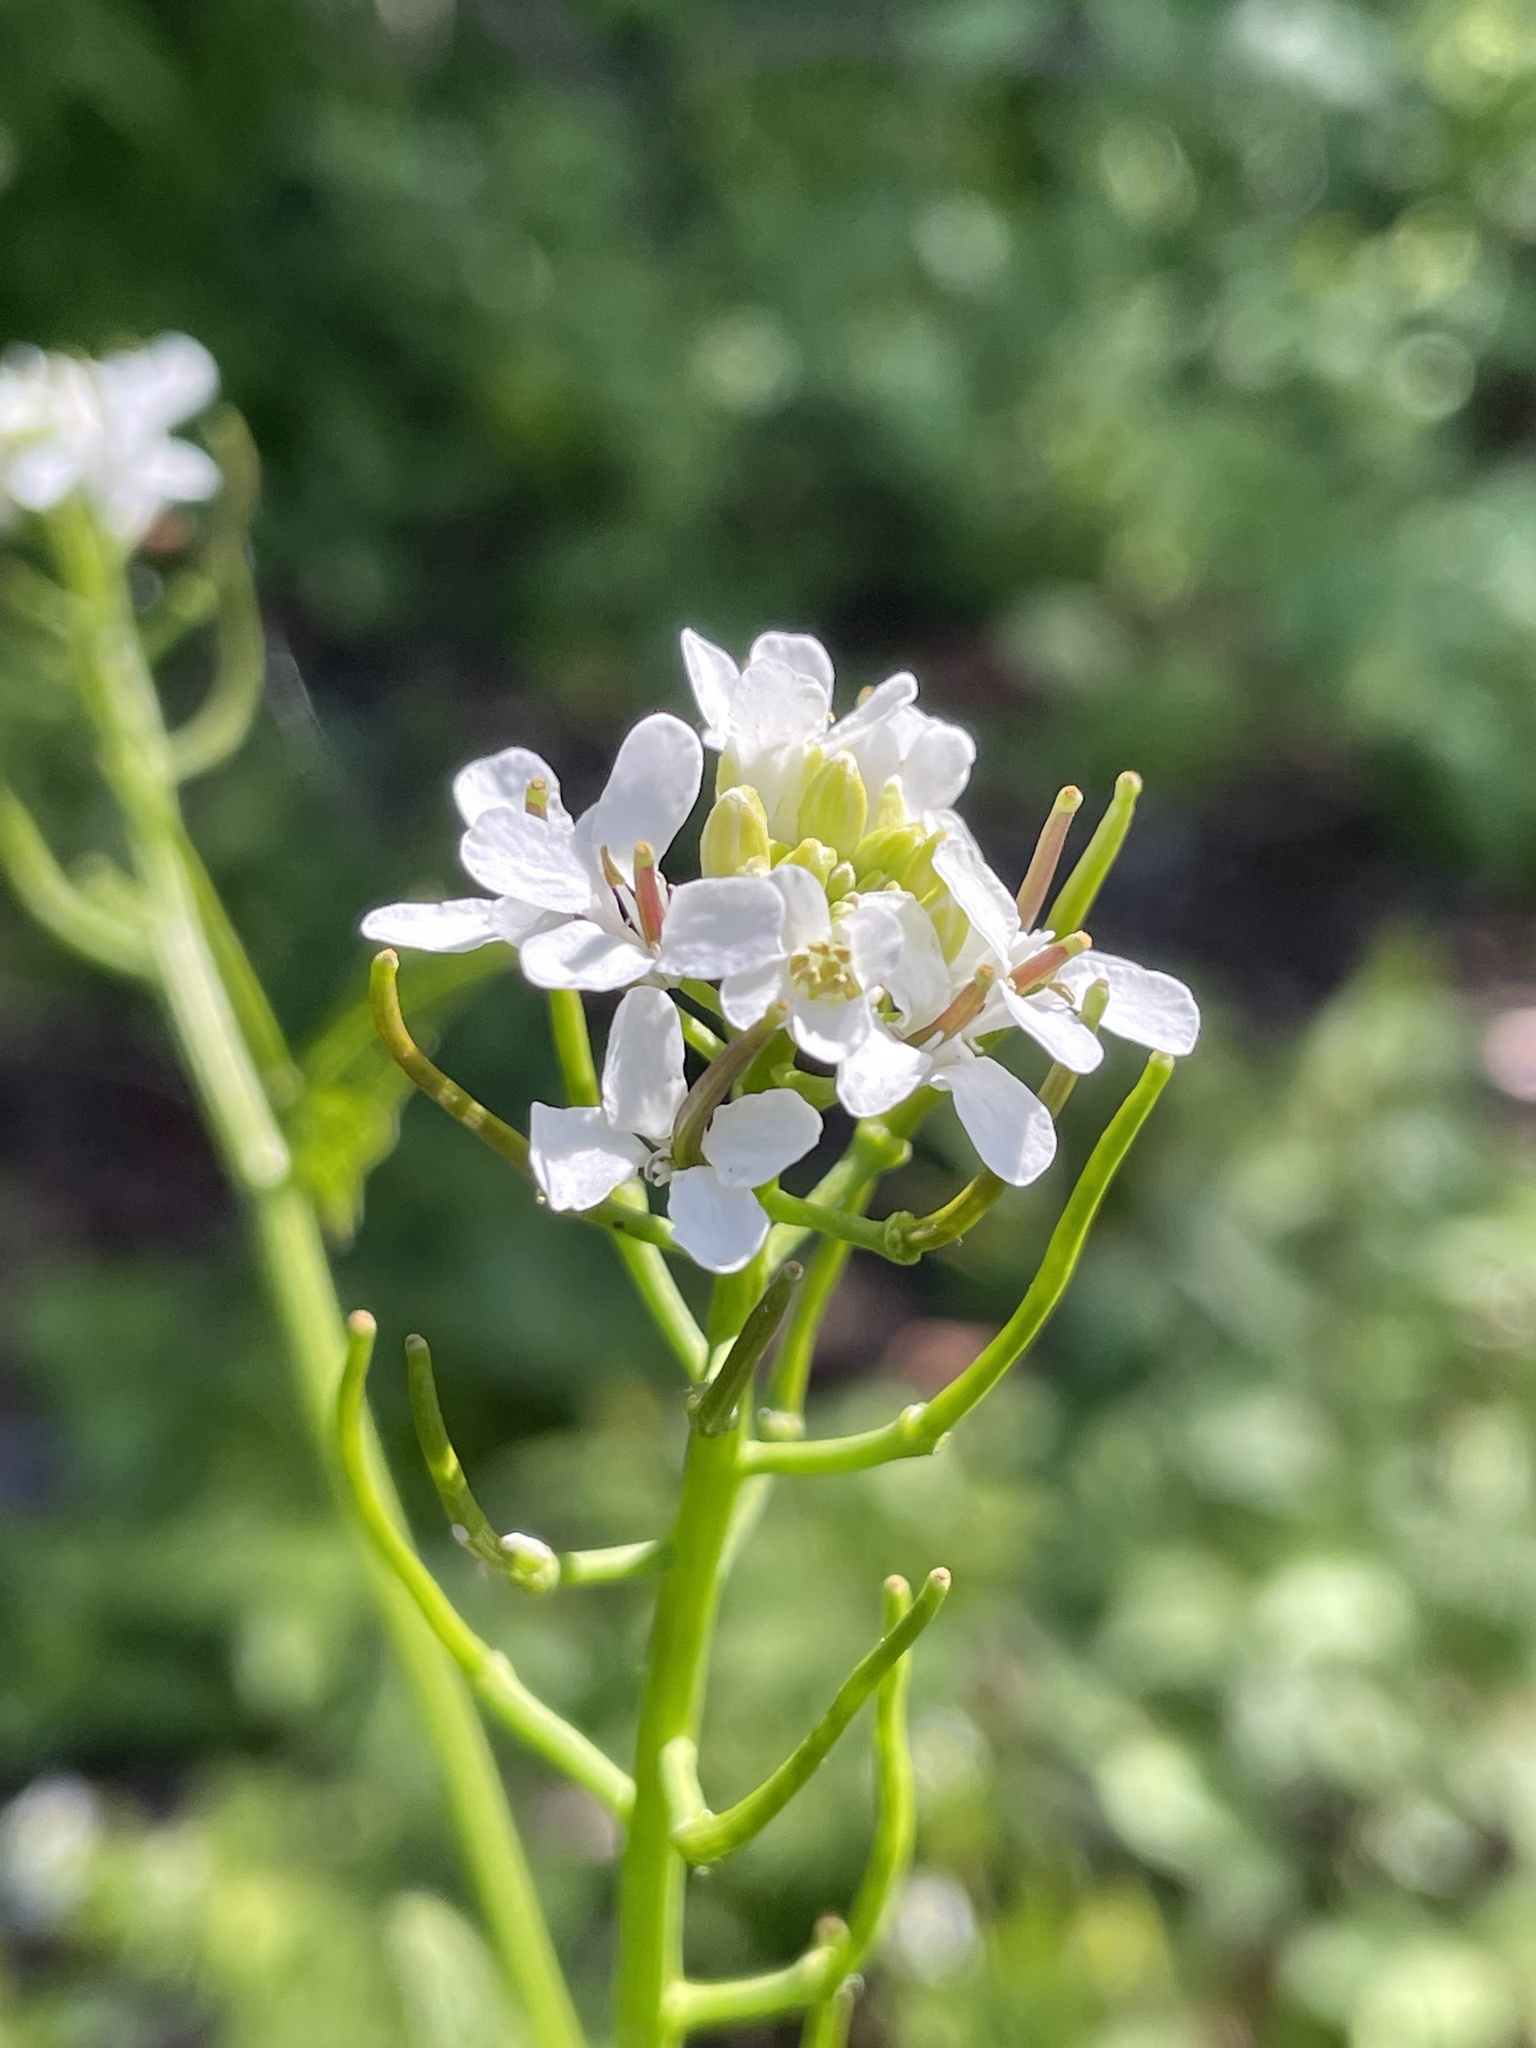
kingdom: Plantae
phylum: Tracheophyta
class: Magnoliopsida
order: Brassicales
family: Brassicaceae
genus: Alliaria
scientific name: Alliaria petiolata
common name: Garlic mustard
